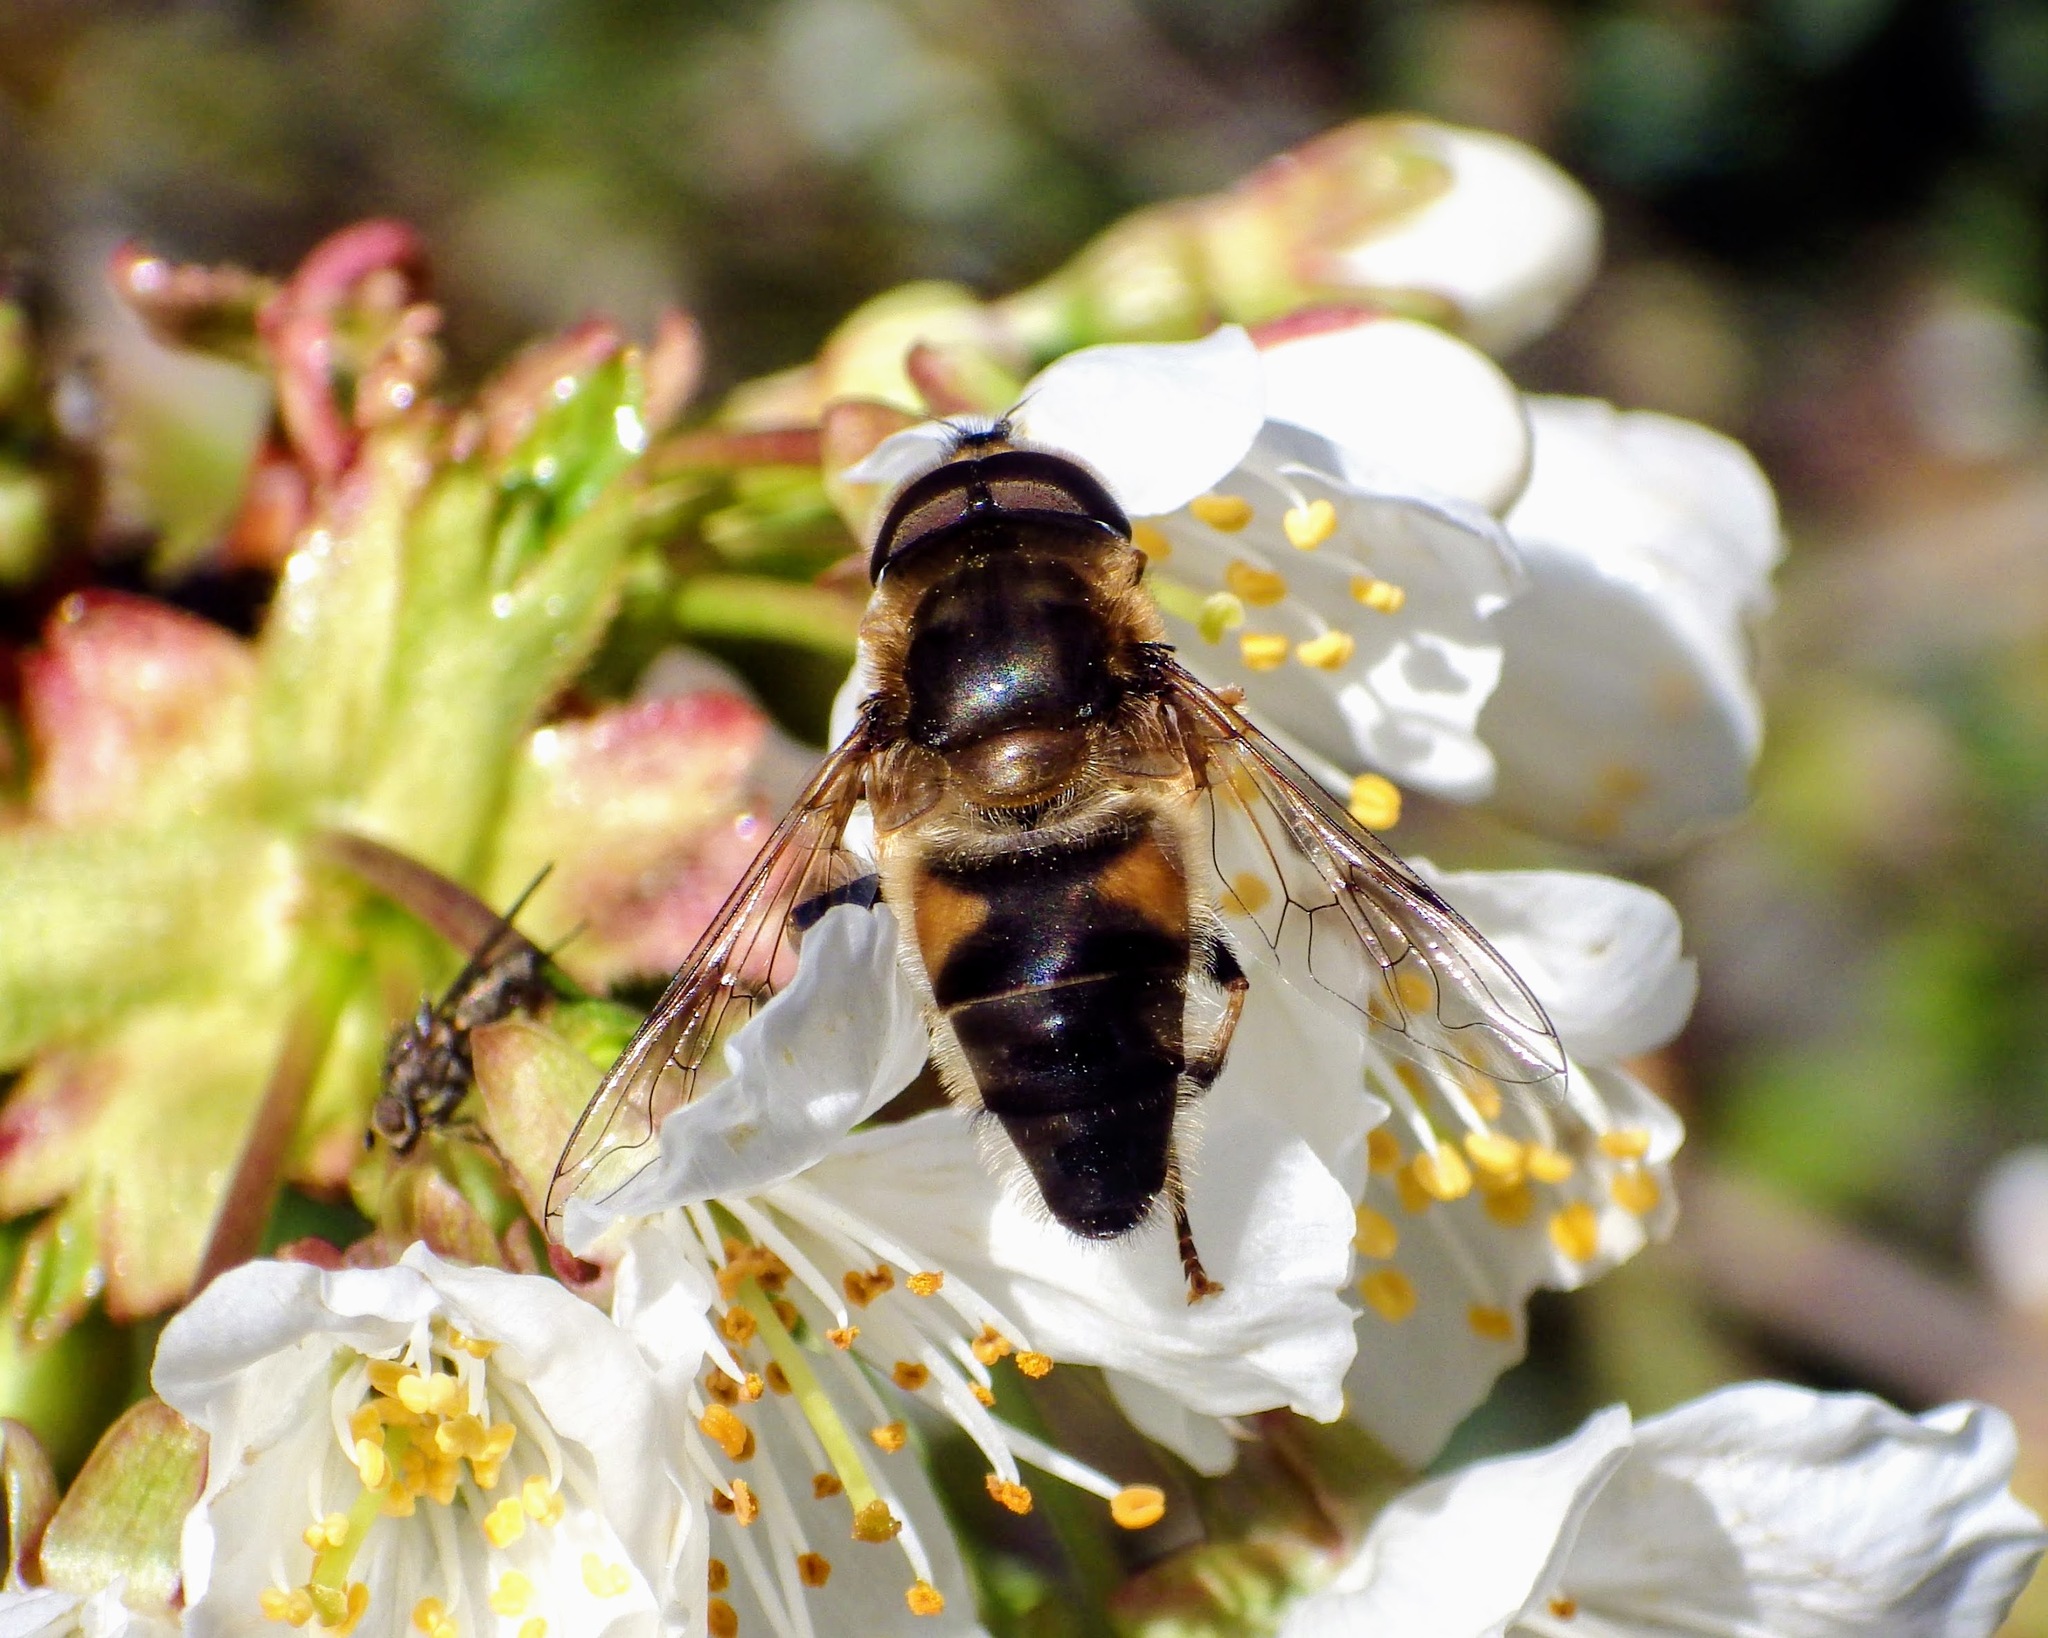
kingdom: Animalia
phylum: Arthropoda
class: Insecta
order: Diptera
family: Syrphidae
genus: Eristalis
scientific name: Eristalis pertinax
